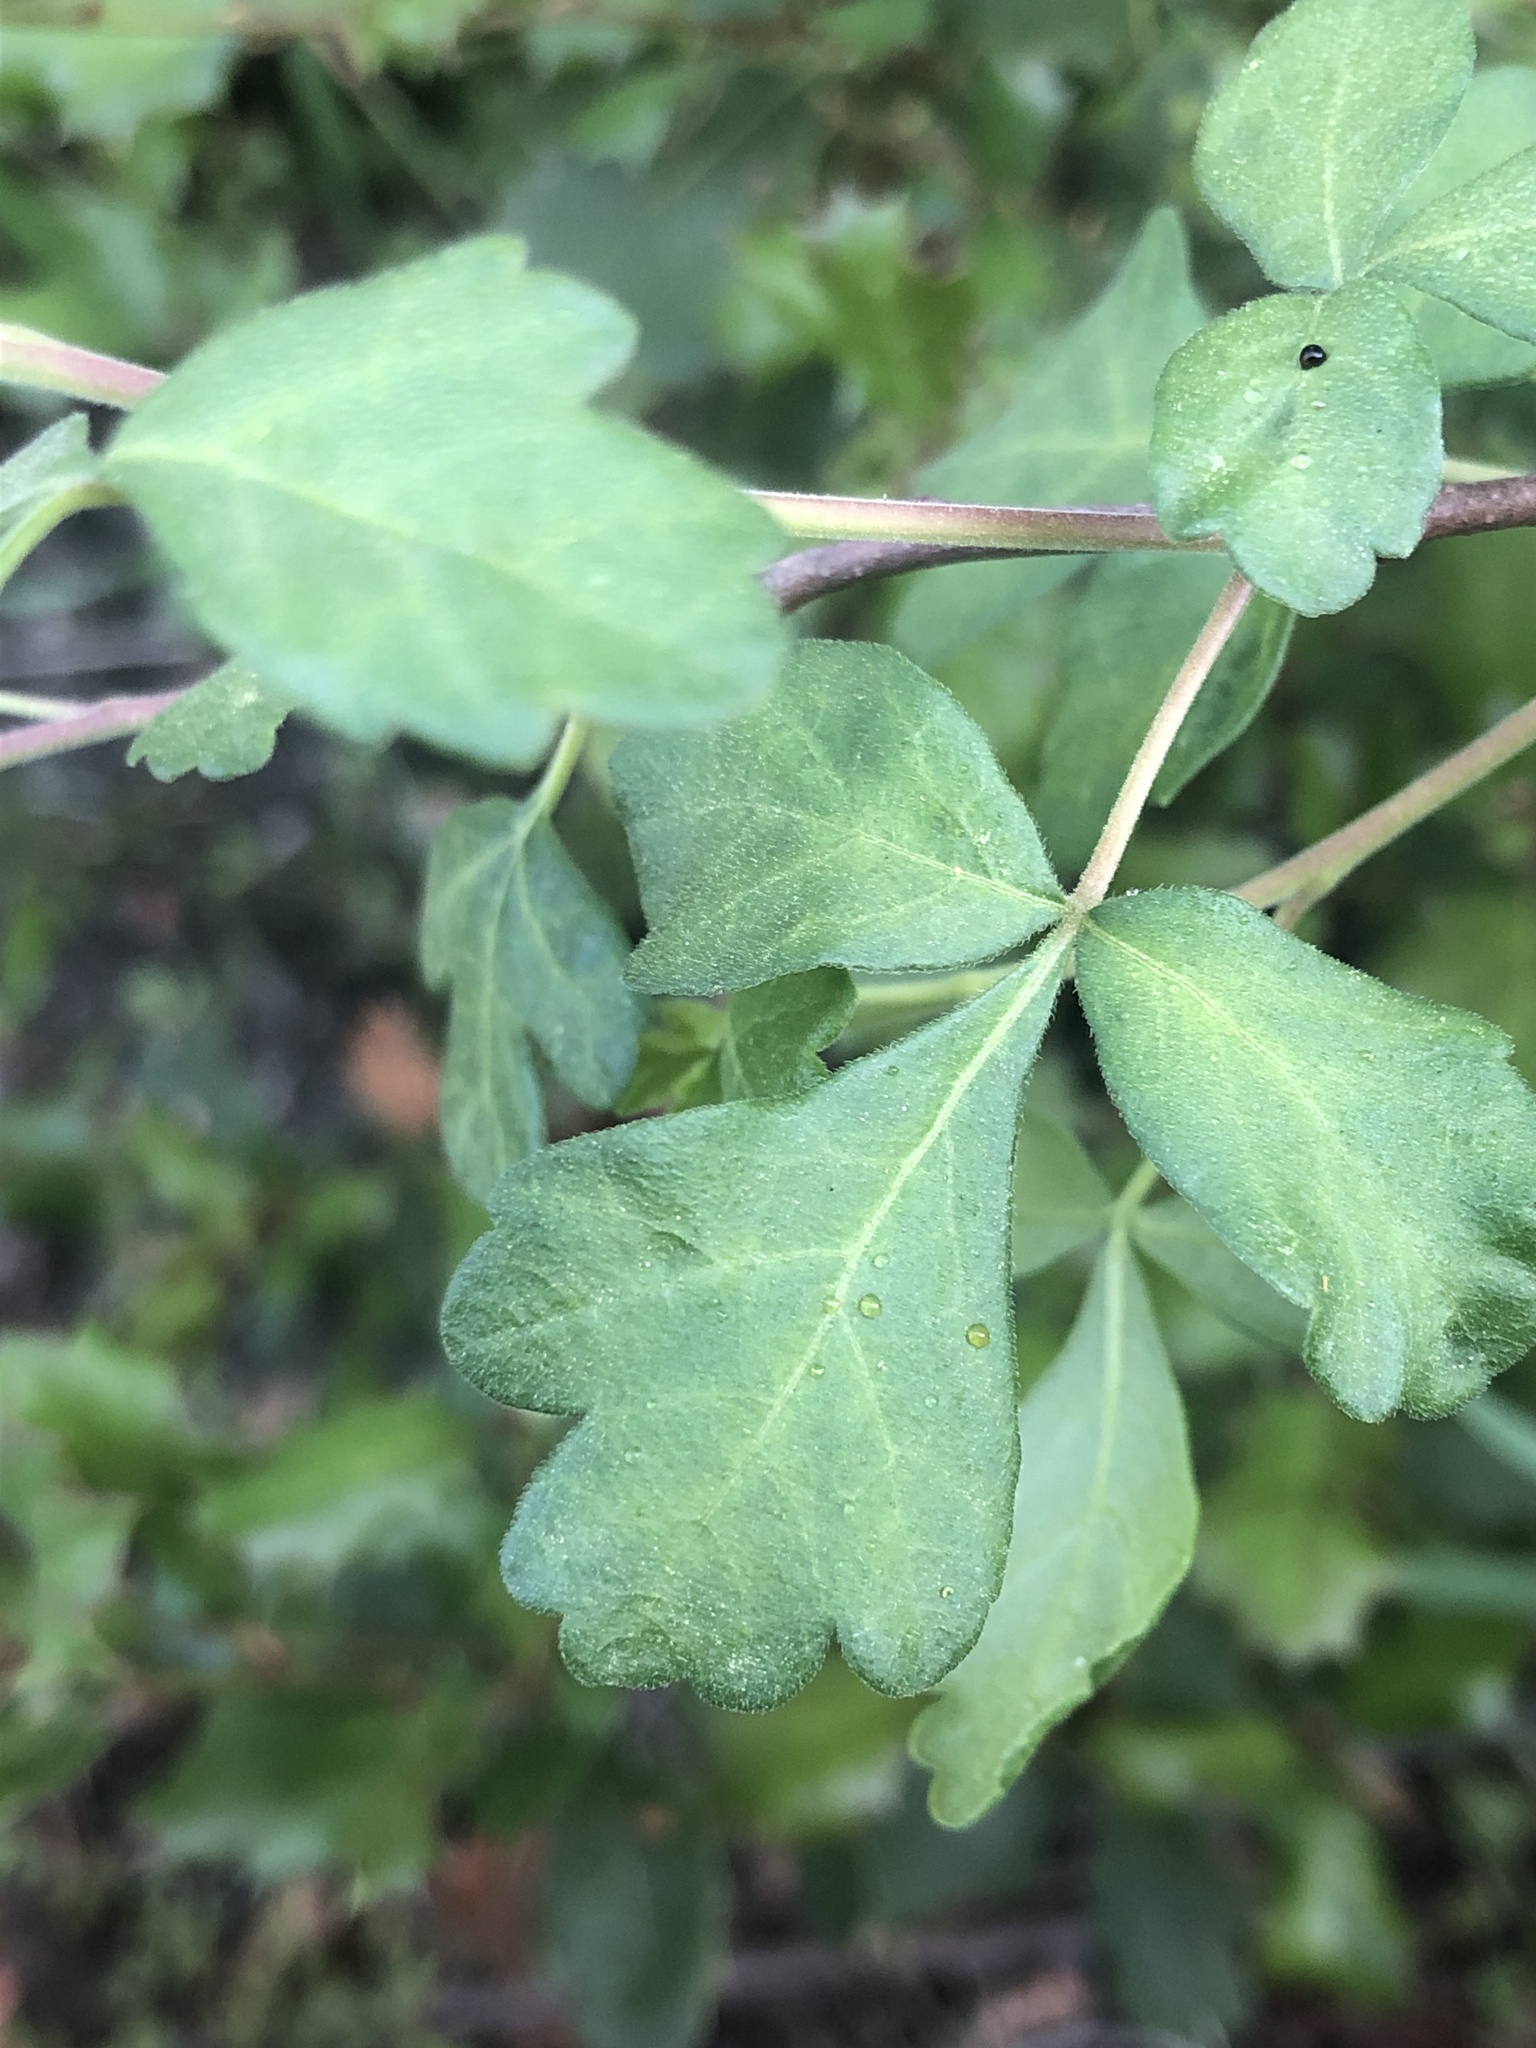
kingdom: Plantae
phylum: Tracheophyta
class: Magnoliopsida
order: Sapindales
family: Anacardiaceae
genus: Rhus
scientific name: Rhus aromatica
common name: Aromatic sumac
